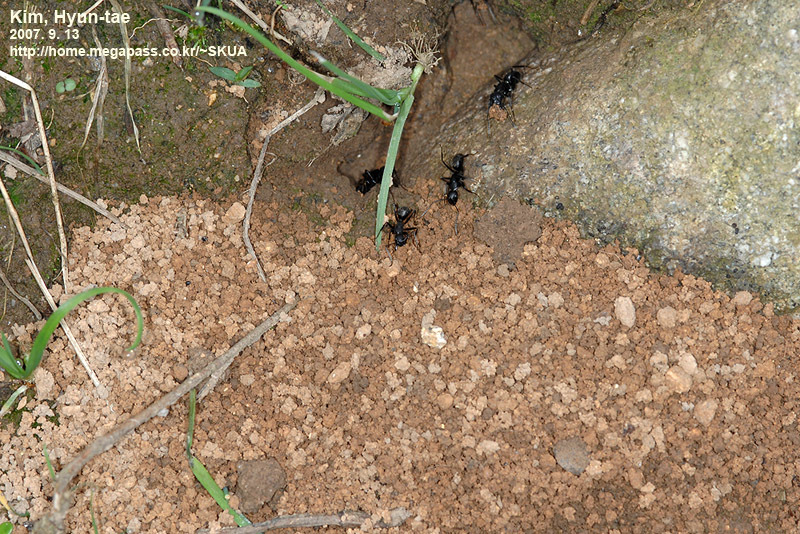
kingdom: Animalia
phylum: Arthropoda
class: Insecta
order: Hymenoptera
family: Formicidae
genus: Camponotus
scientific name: Camponotus japonicus
